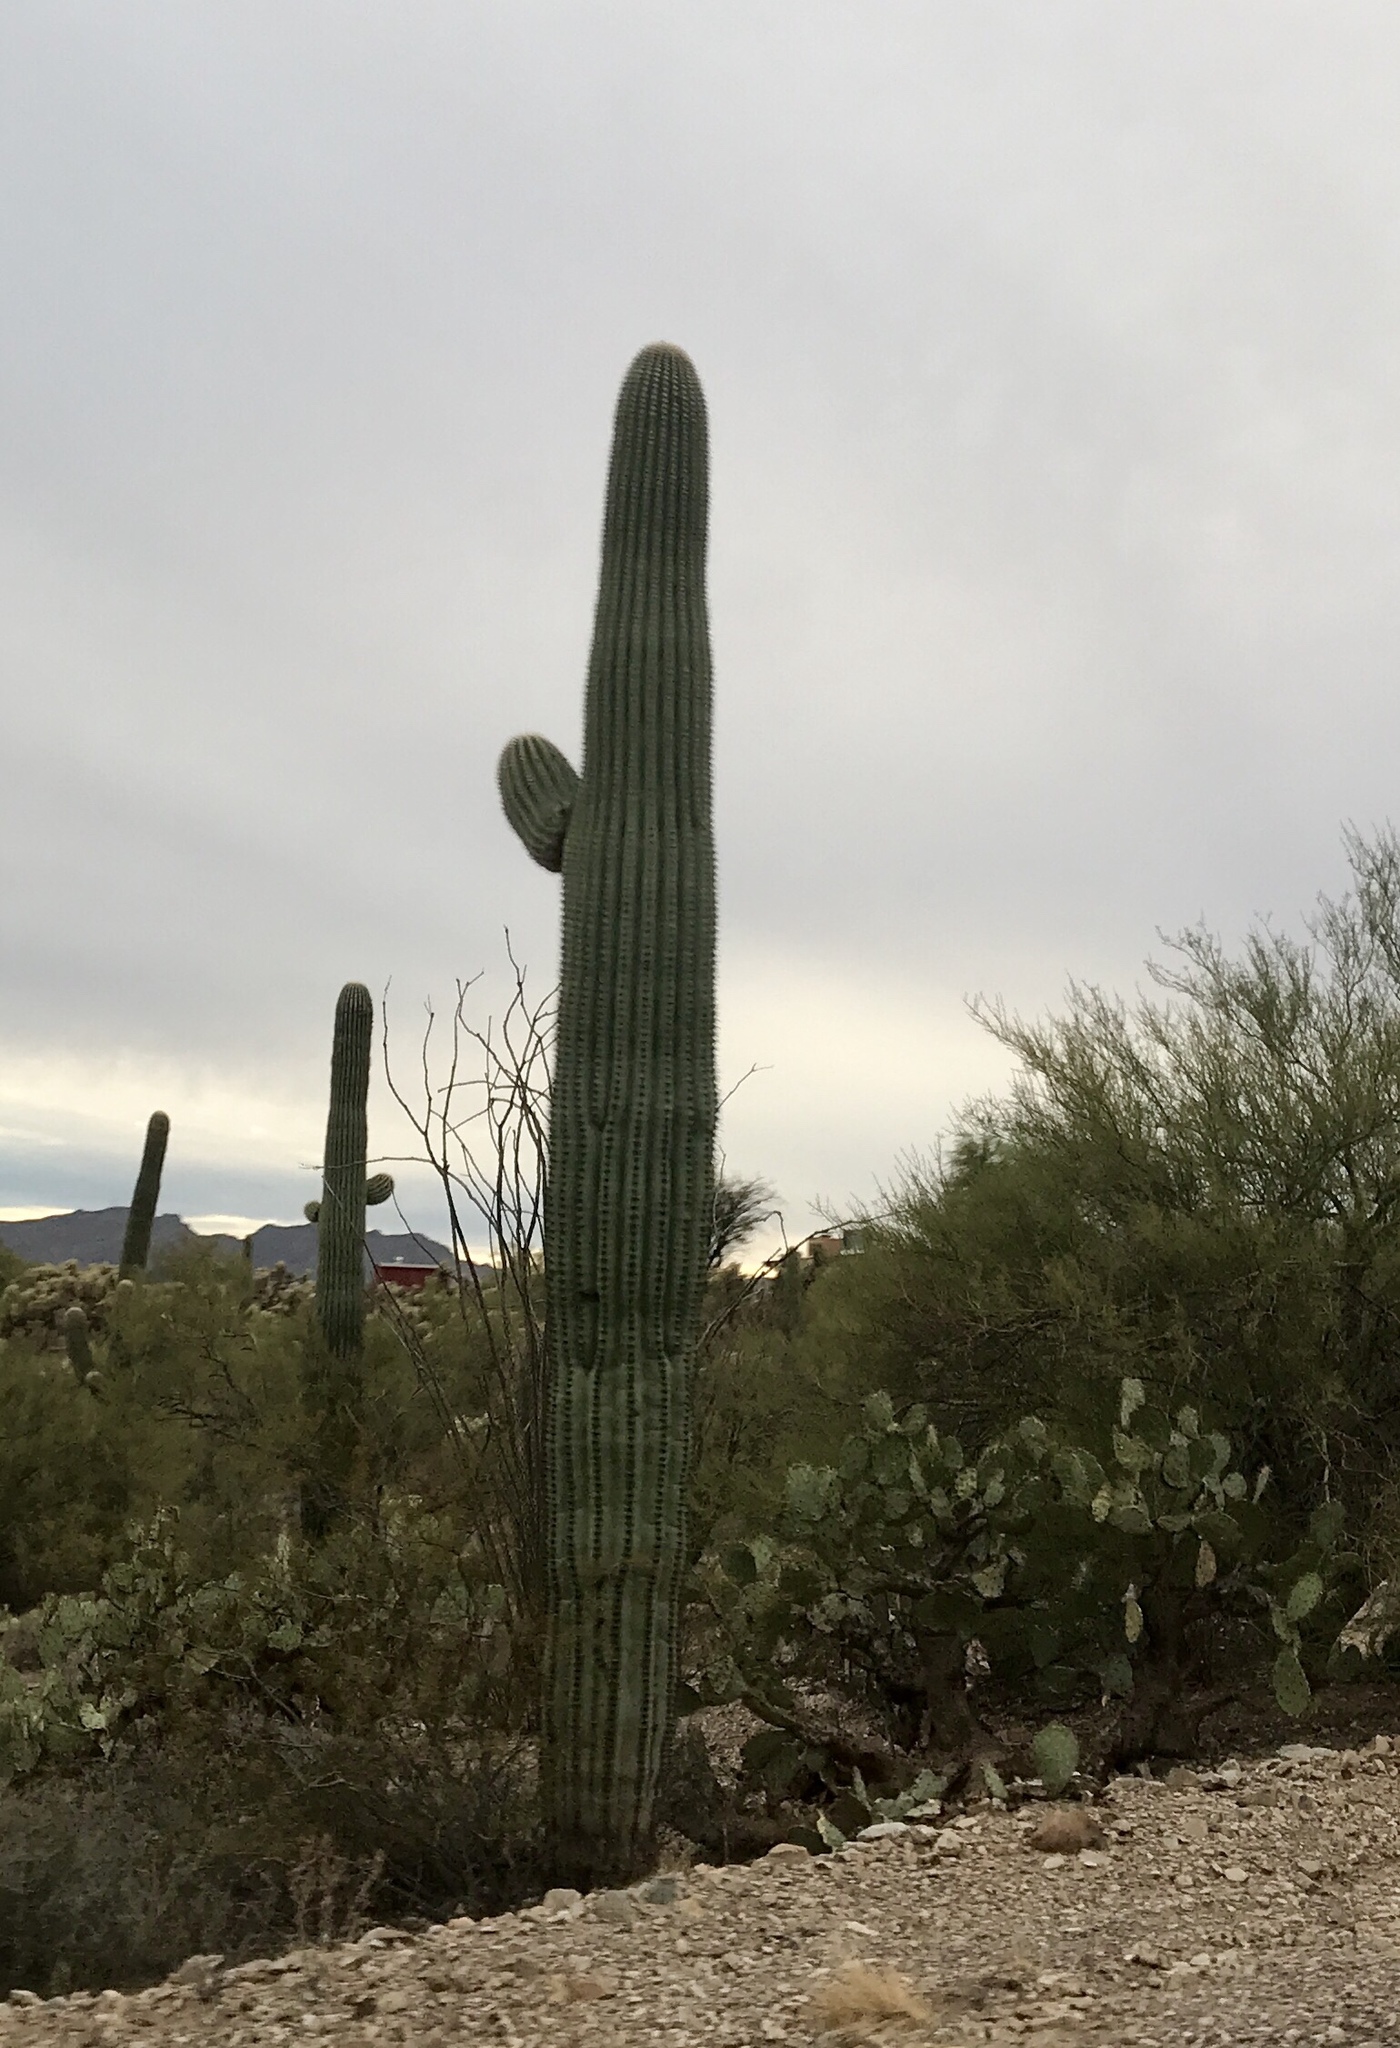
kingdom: Plantae
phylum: Tracheophyta
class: Magnoliopsida
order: Caryophyllales
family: Cactaceae
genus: Carnegiea
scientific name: Carnegiea gigantea
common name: Saguaro
